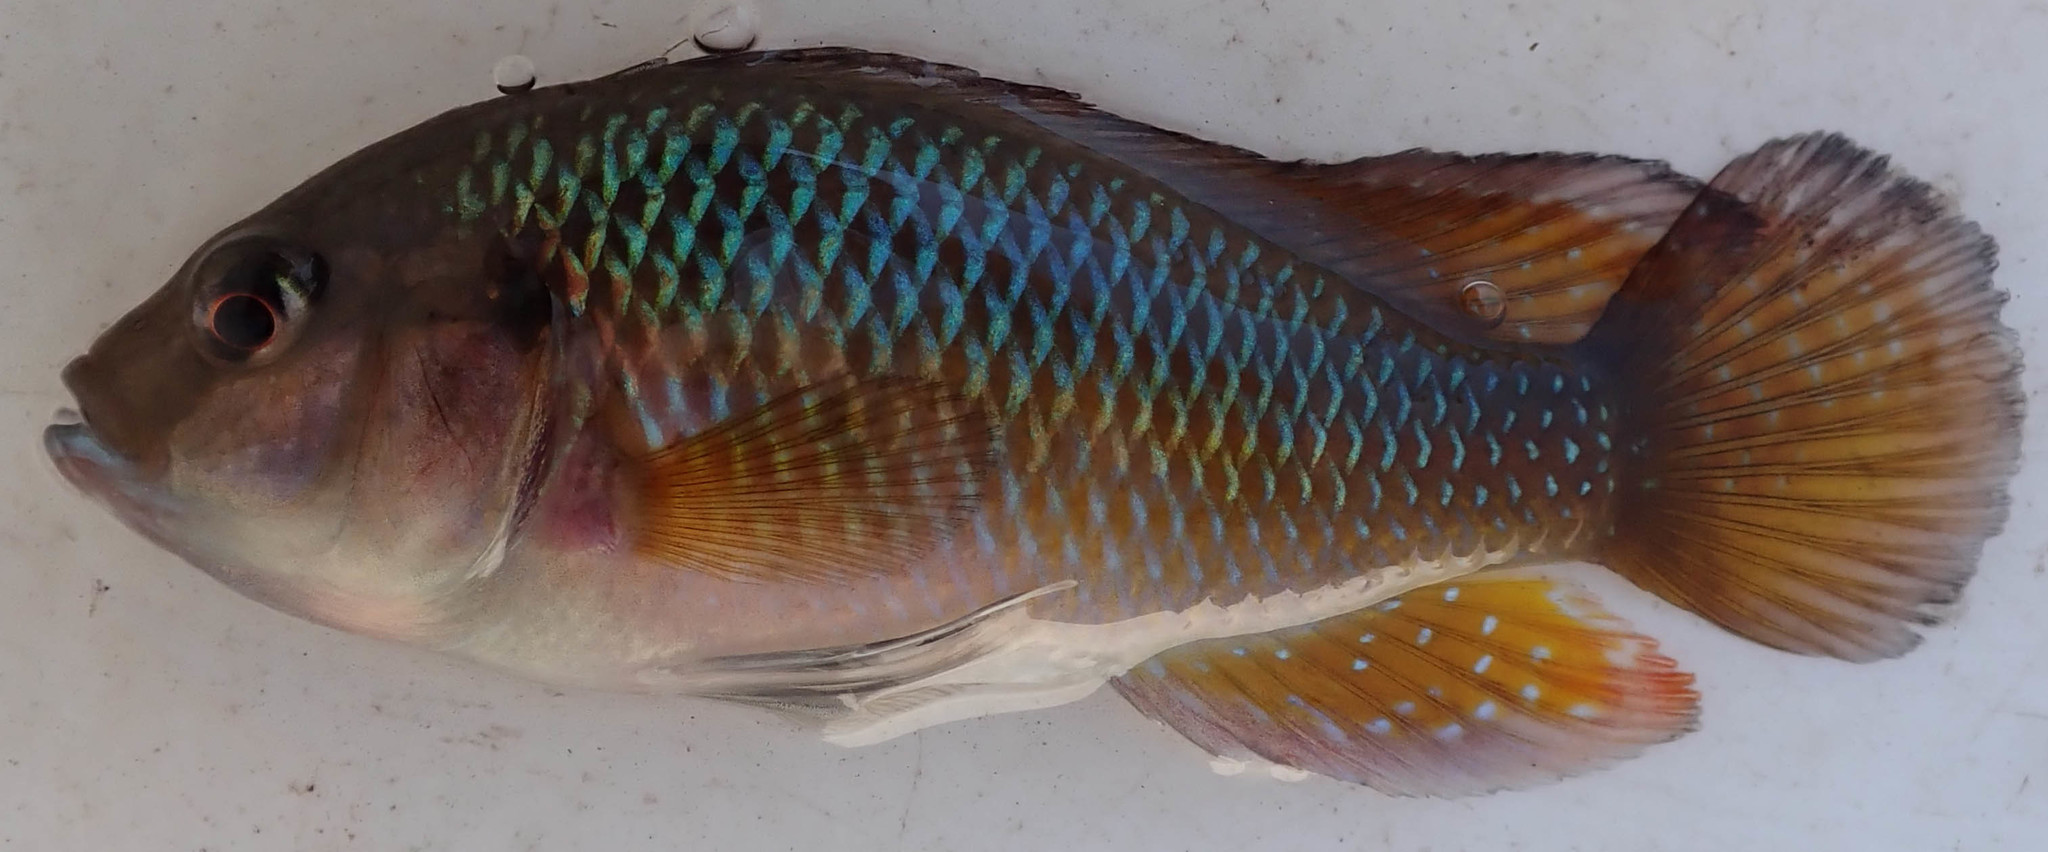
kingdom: Animalia
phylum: Chordata
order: Perciformes
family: Cichlidae
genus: Pseudocrenilabrus
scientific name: Pseudocrenilabrus philander
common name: Southern mouthbrooder
